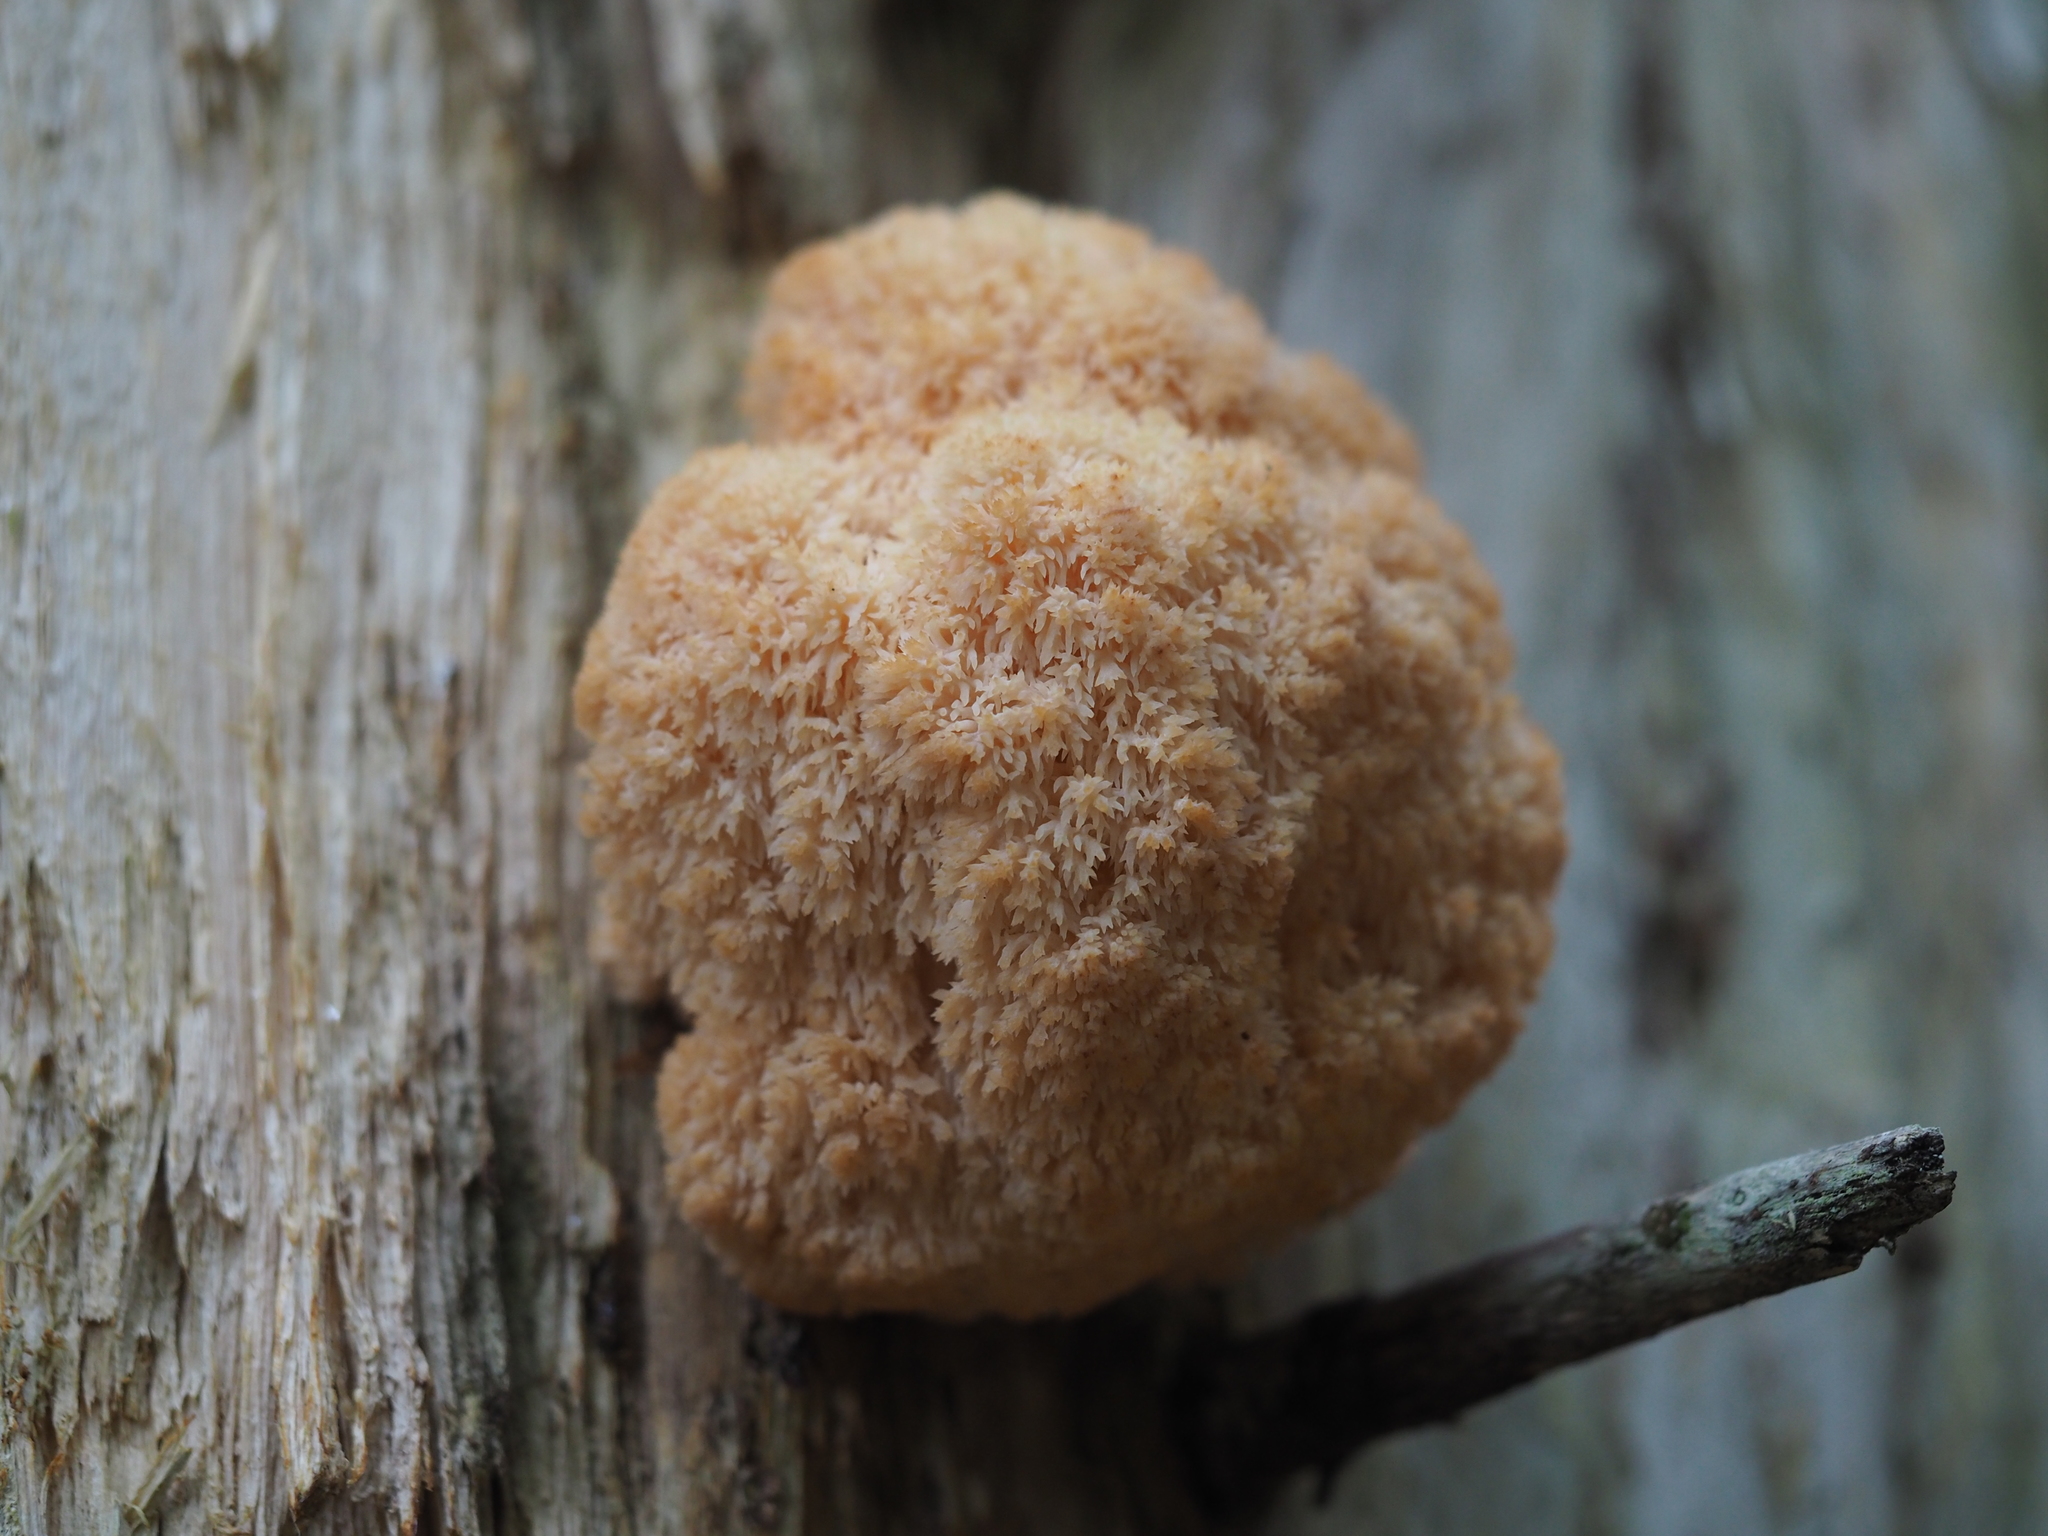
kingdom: Fungi
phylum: Basidiomycota
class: Agaricomycetes
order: Russulales
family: Hericiaceae
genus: Hericium
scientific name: Hericium flagellum
